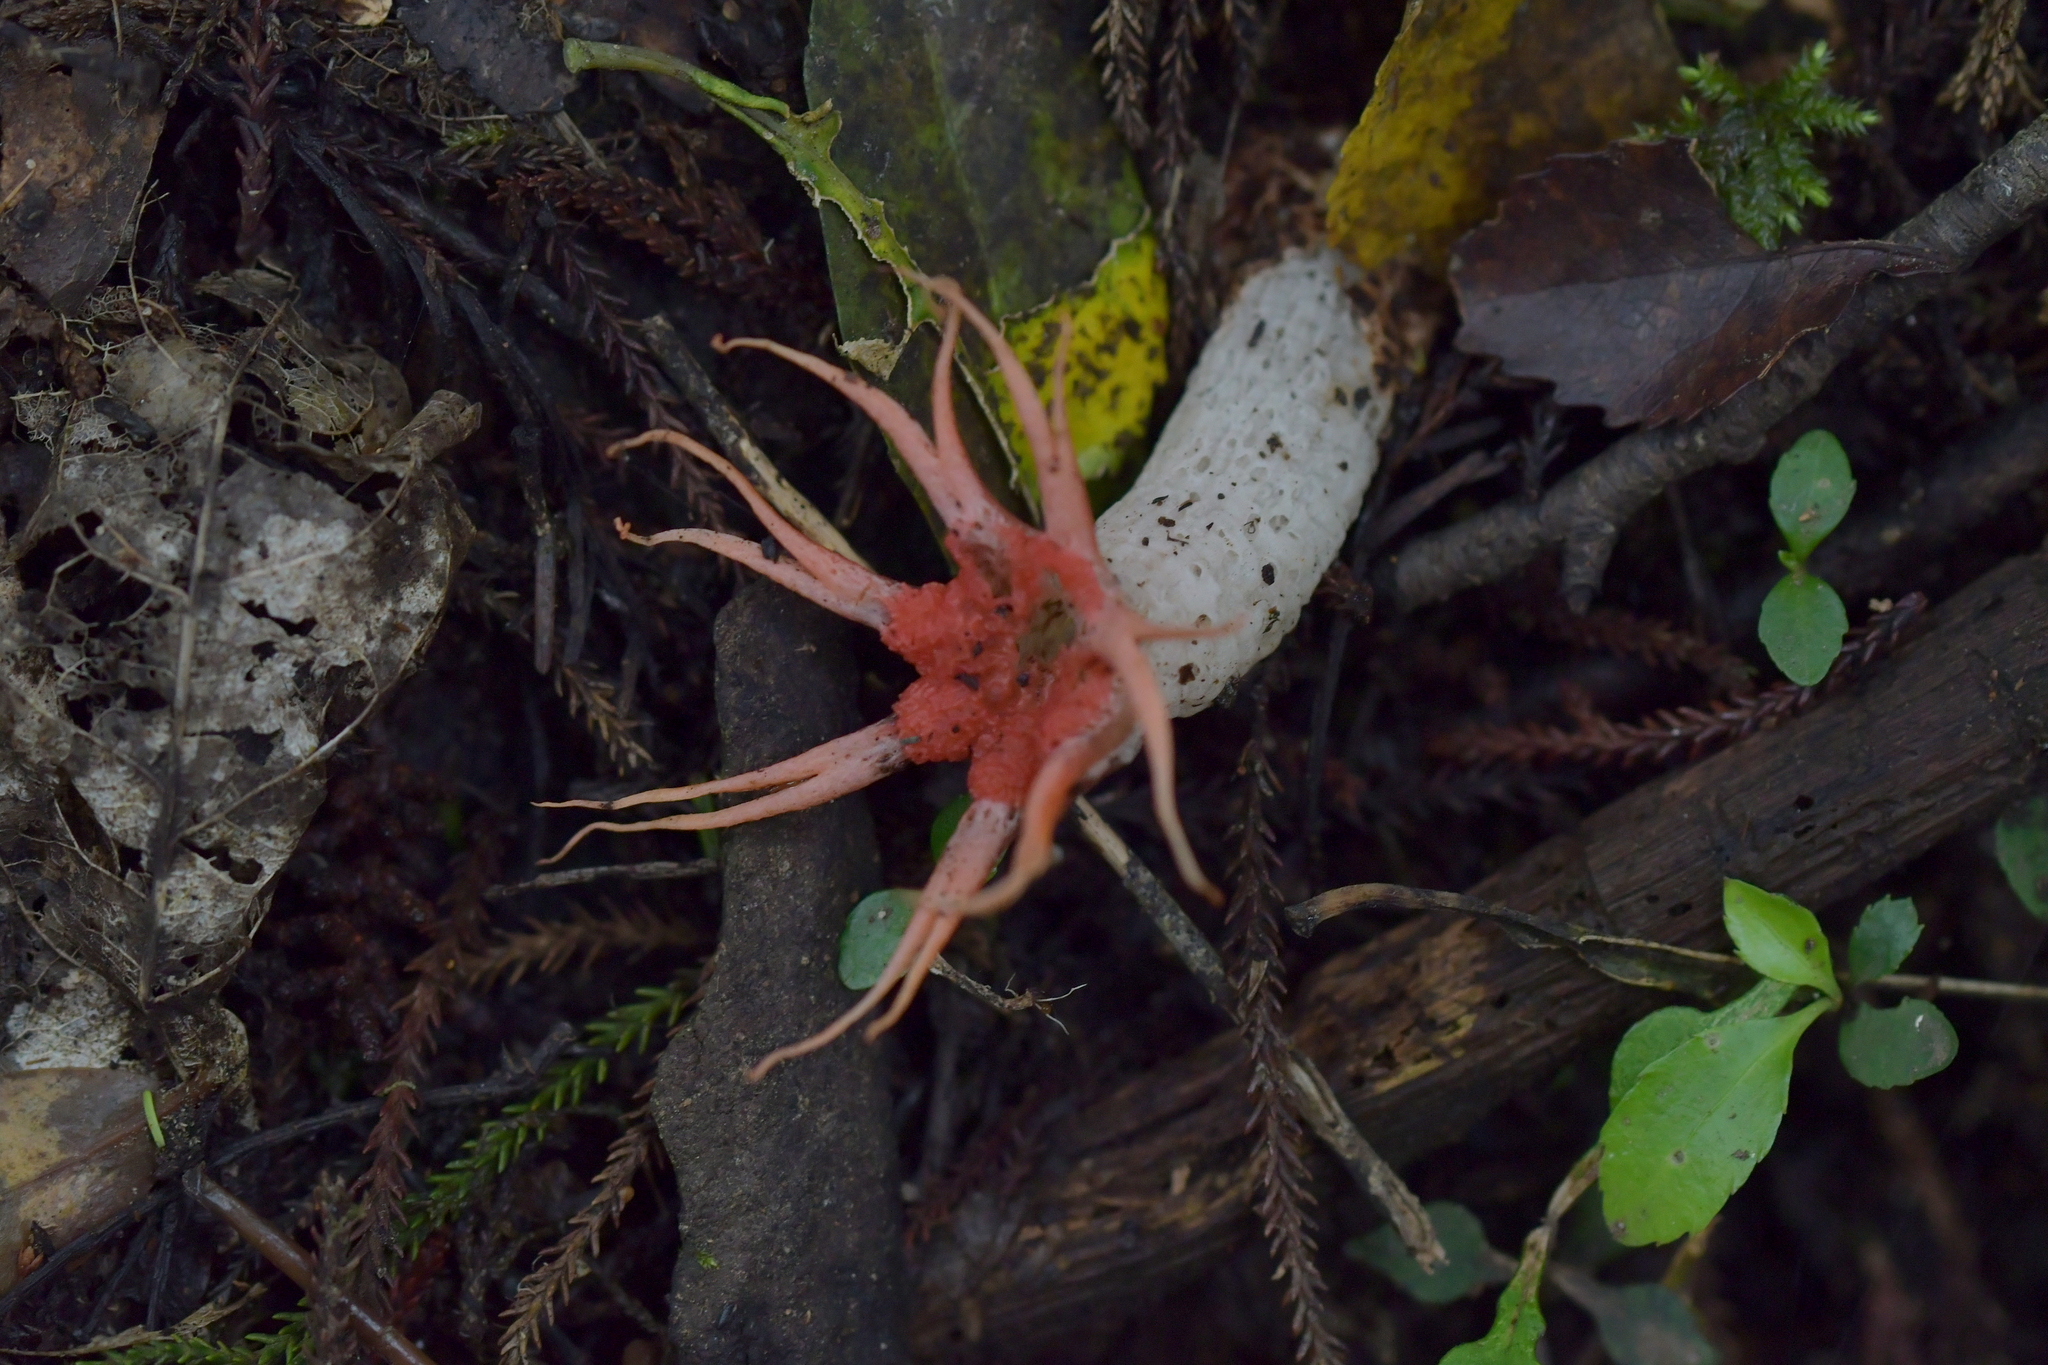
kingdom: Fungi
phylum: Basidiomycota
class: Agaricomycetes
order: Phallales
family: Phallaceae
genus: Aseroe
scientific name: Aseroe rubra
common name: Starfish fungus
